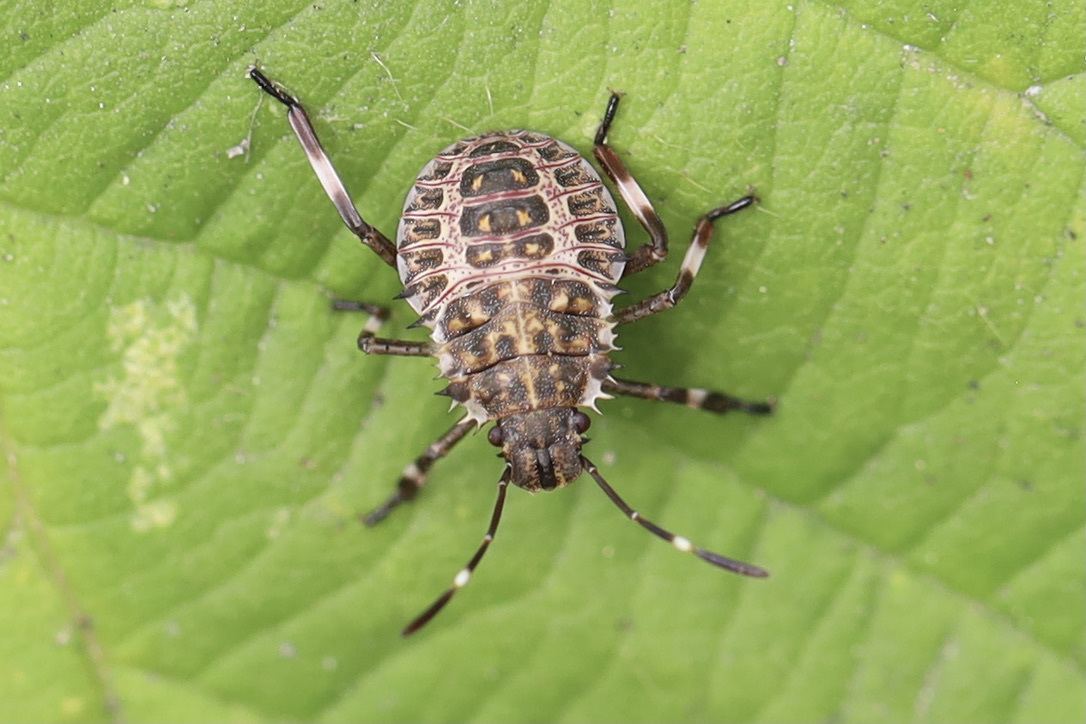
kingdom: Animalia
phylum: Arthropoda
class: Insecta
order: Hemiptera
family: Pentatomidae
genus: Halyomorpha
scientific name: Halyomorpha halys
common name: Brown marmorated stink bug
